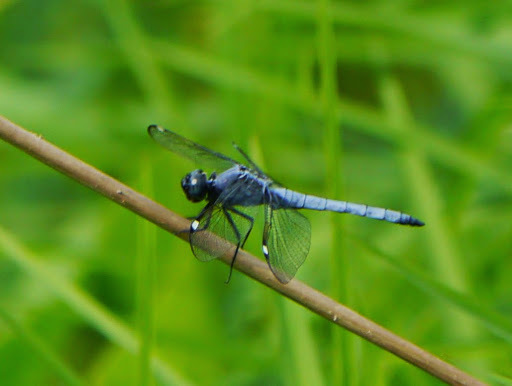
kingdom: Animalia
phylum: Arthropoda
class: Insecta
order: Odonata
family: Libellulidae
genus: Libellula
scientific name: Libellula cyanea
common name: Spangled skimmer
